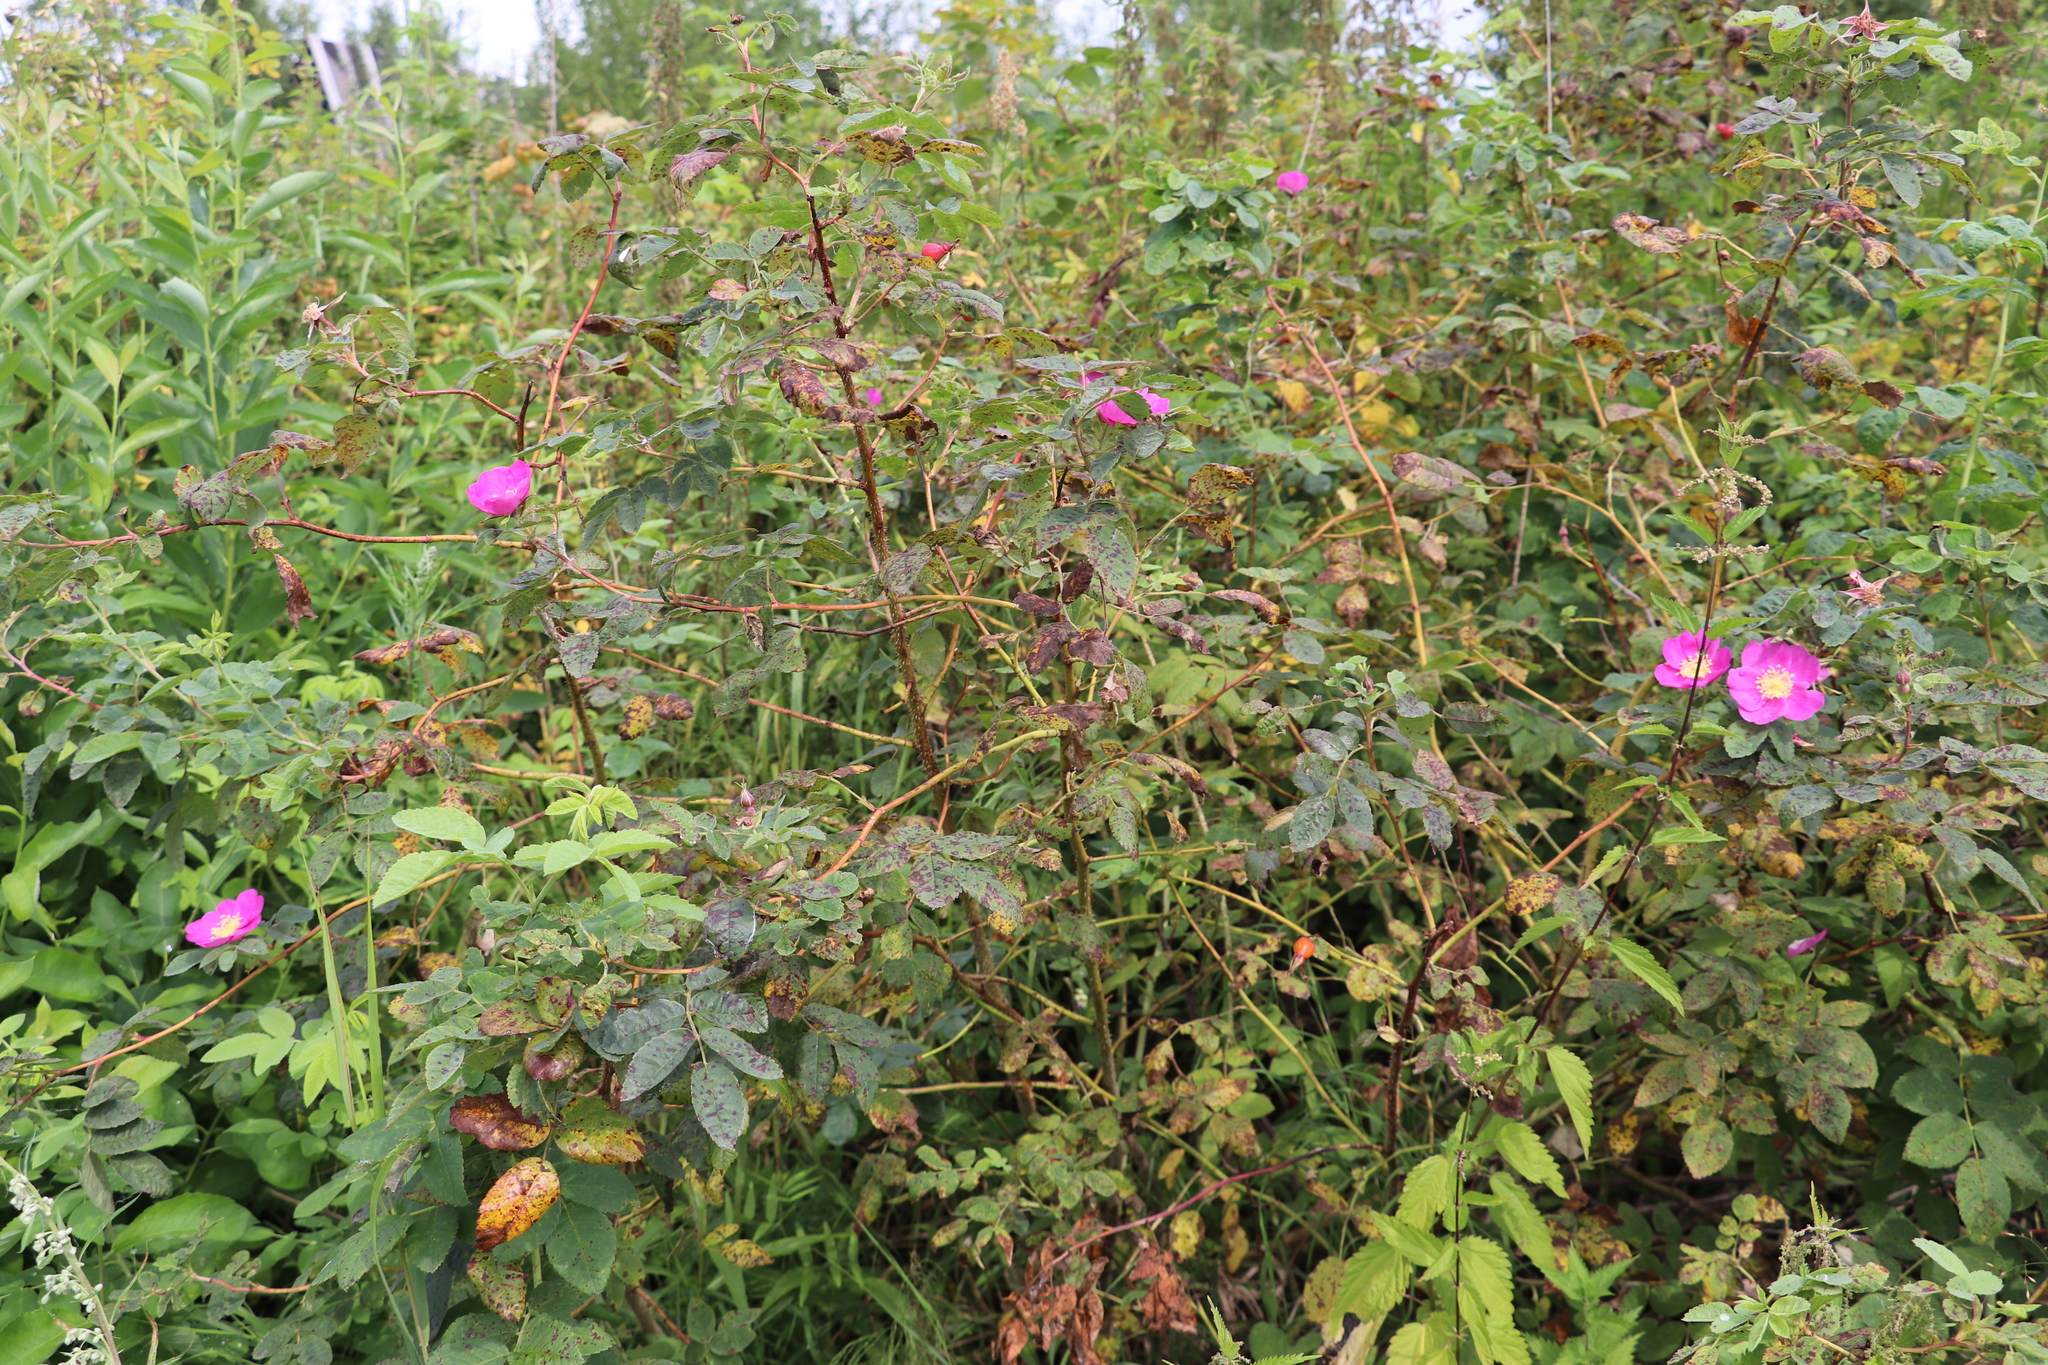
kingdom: Plantae
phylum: Tracheophyta
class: Magnoliopsida
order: Rosales
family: Rosaceae
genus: Rosa
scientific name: Rosa acicularis
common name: Prickly rose
